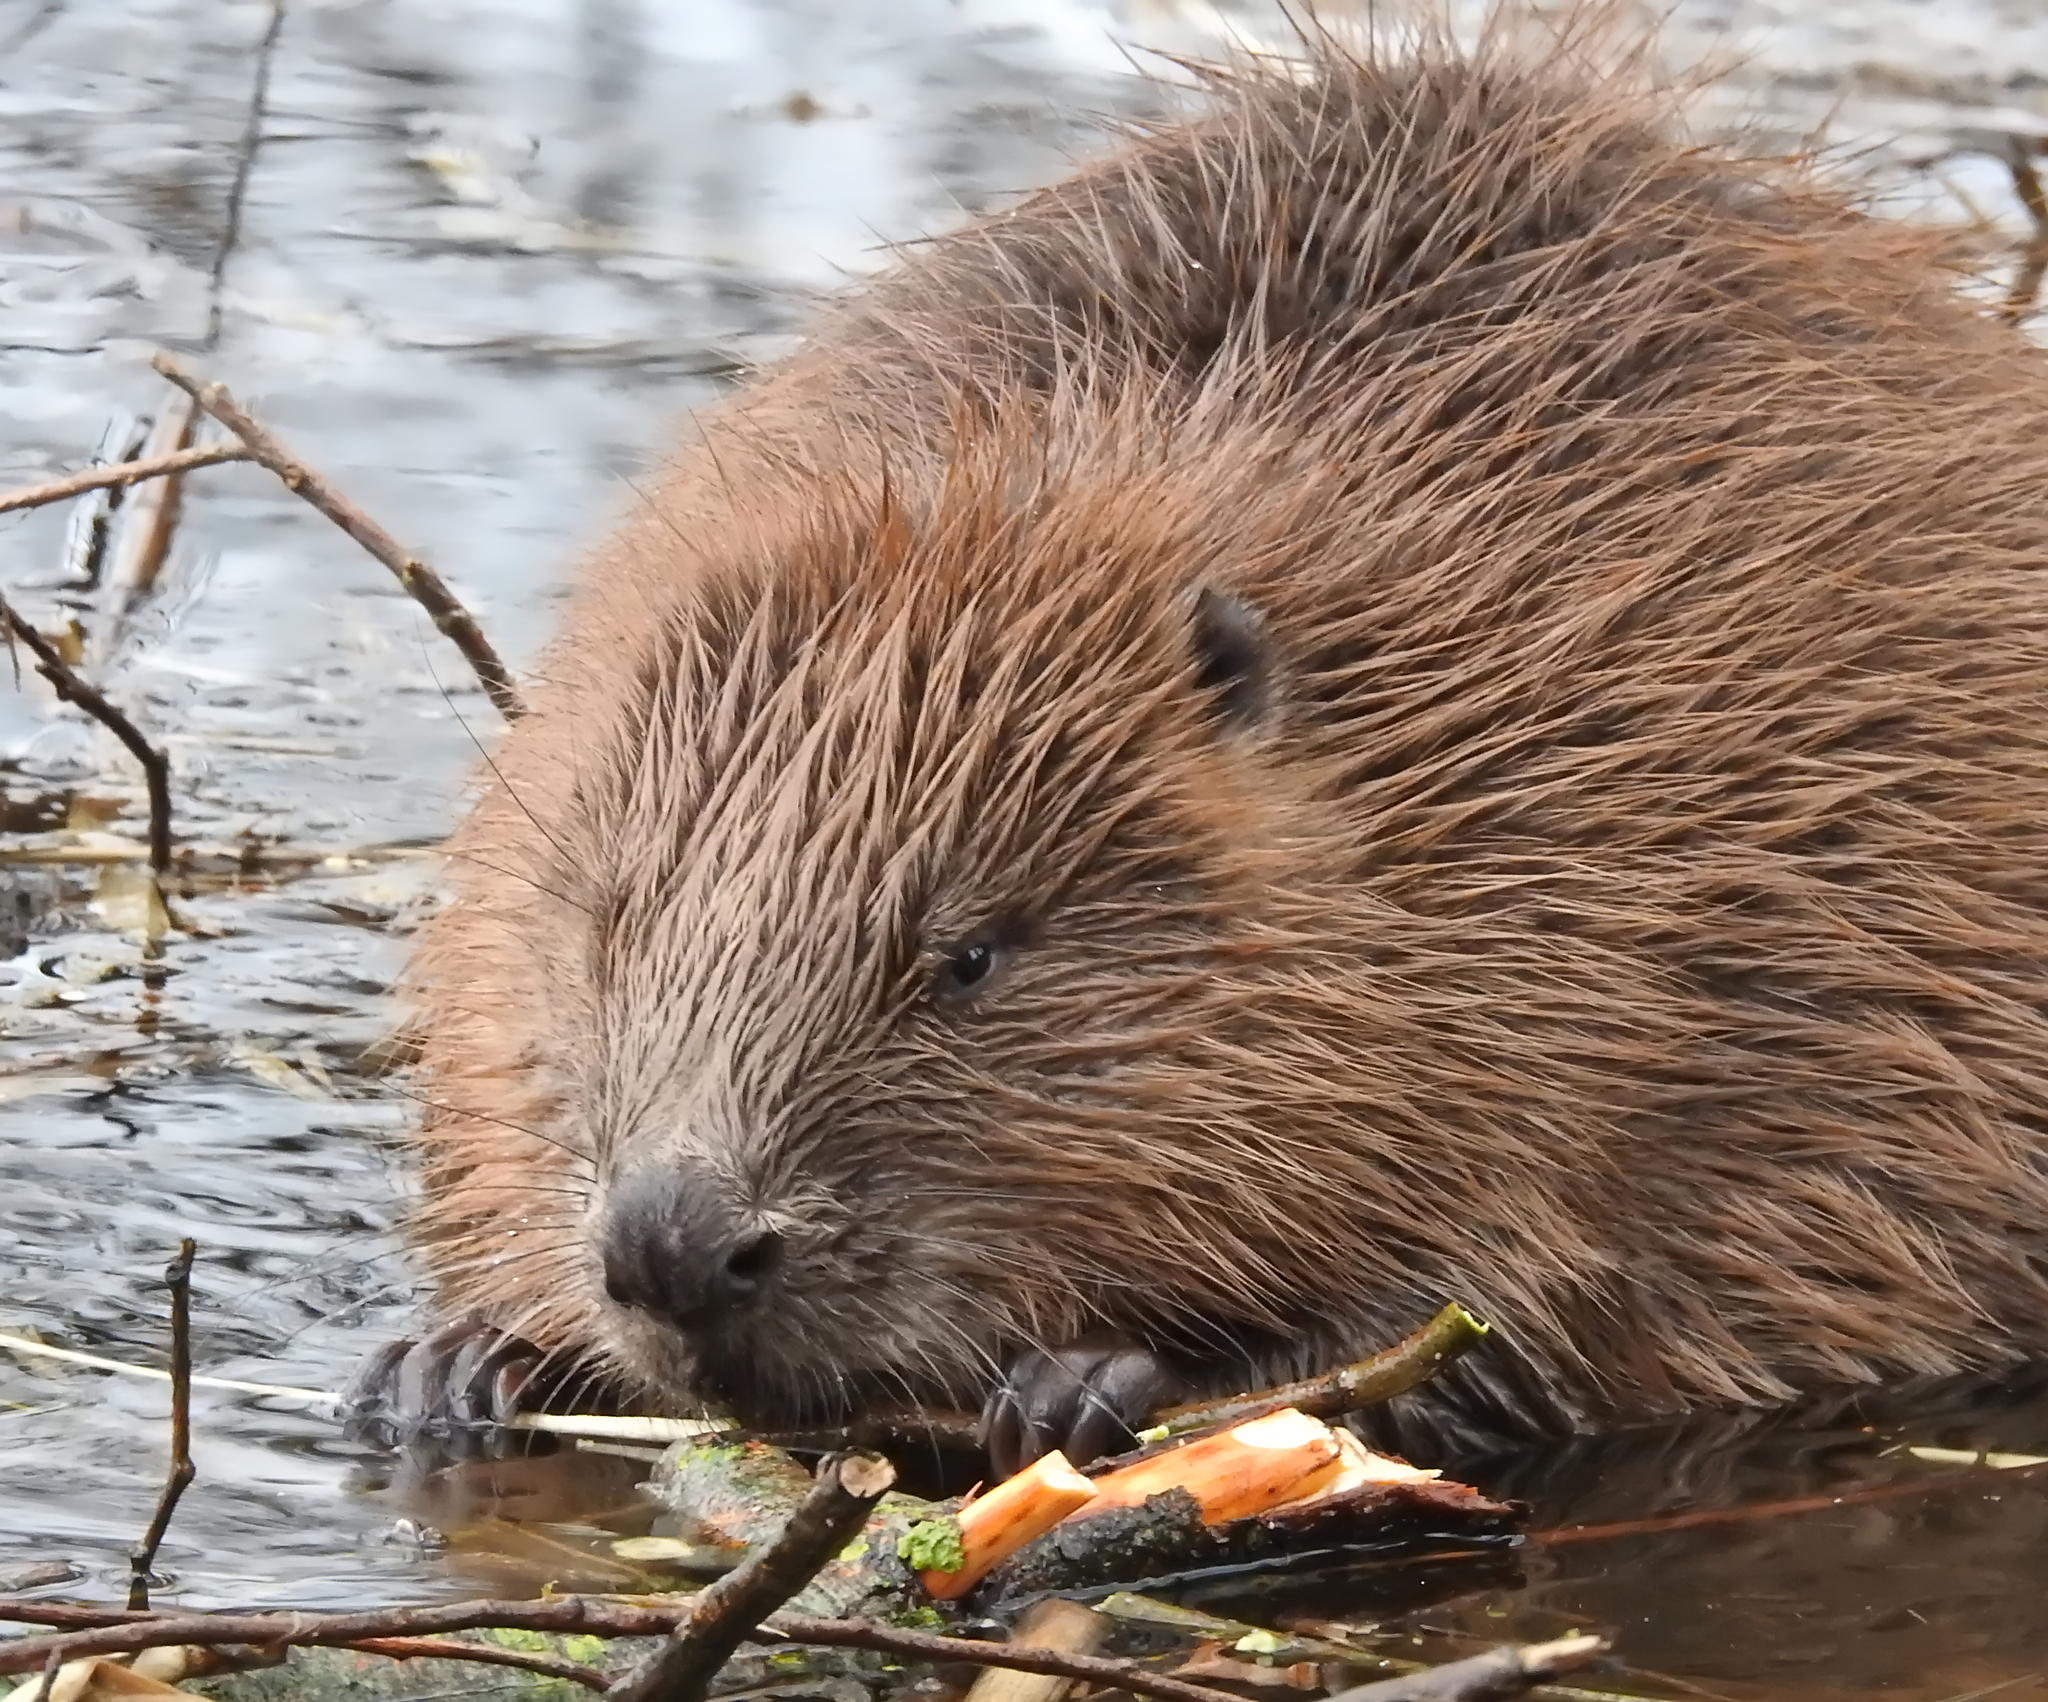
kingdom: Animalia
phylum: Chordata
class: Mammalia
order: Rodentia
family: Castoridae
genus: Castor
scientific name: Castor fiber
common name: Eurasian beaver
